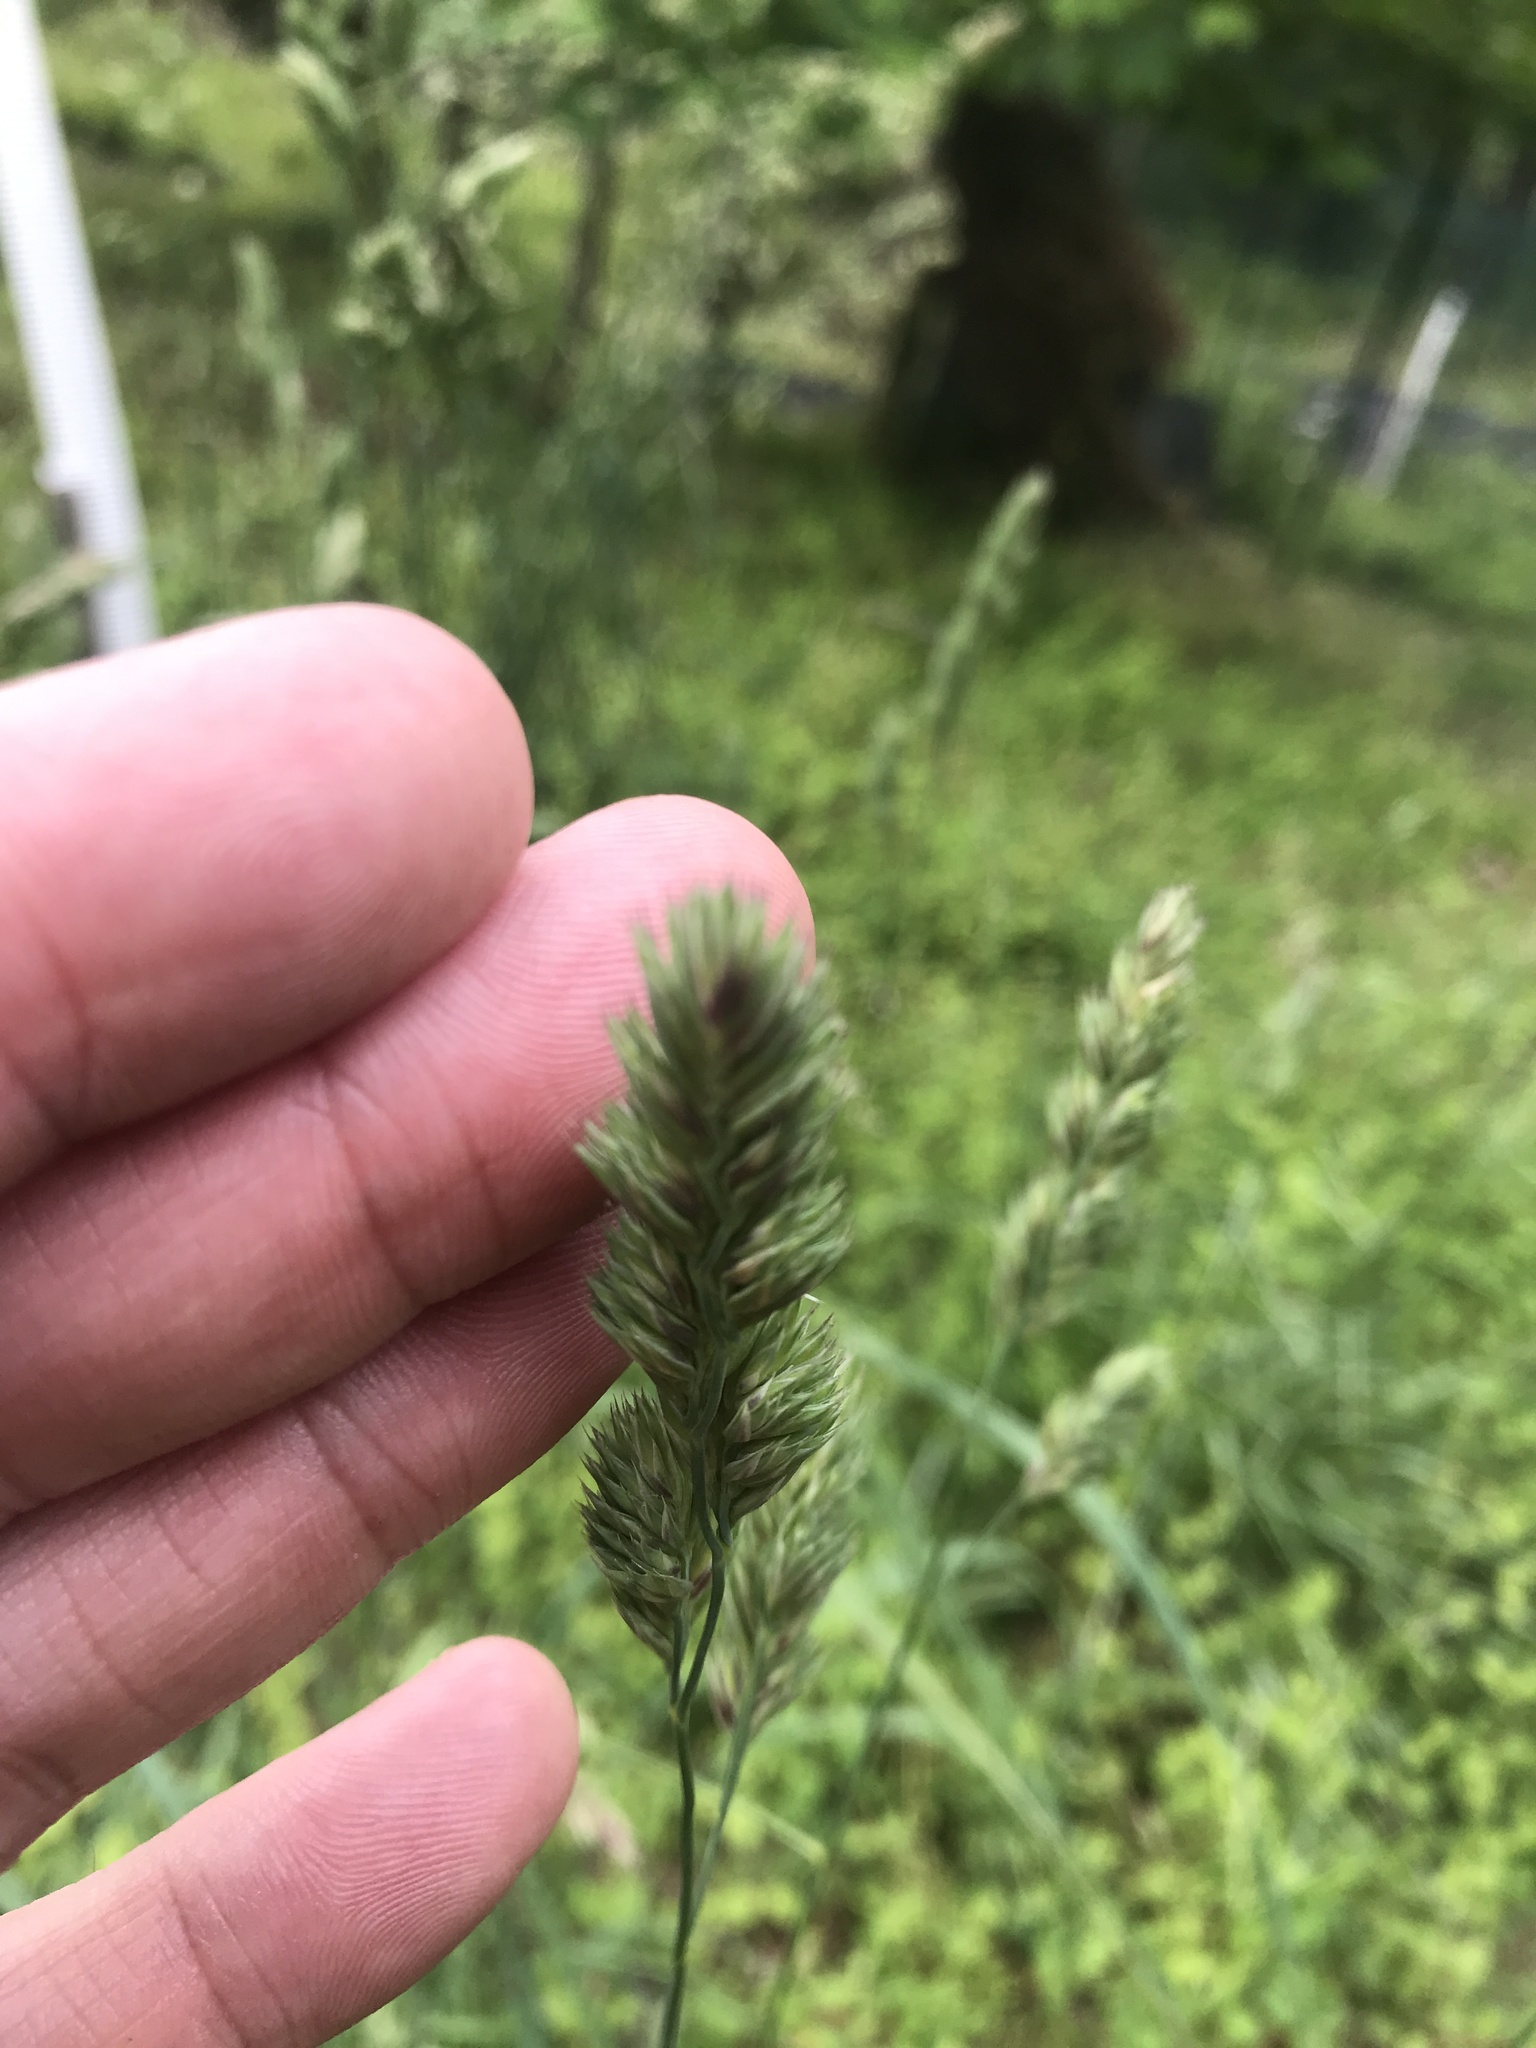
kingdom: Plantae
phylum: Tracheophyta
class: Liliopsida
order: Poales
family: Poaceae
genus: Dactylis
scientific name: Dactylis glomerata
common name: Orchardgrass
